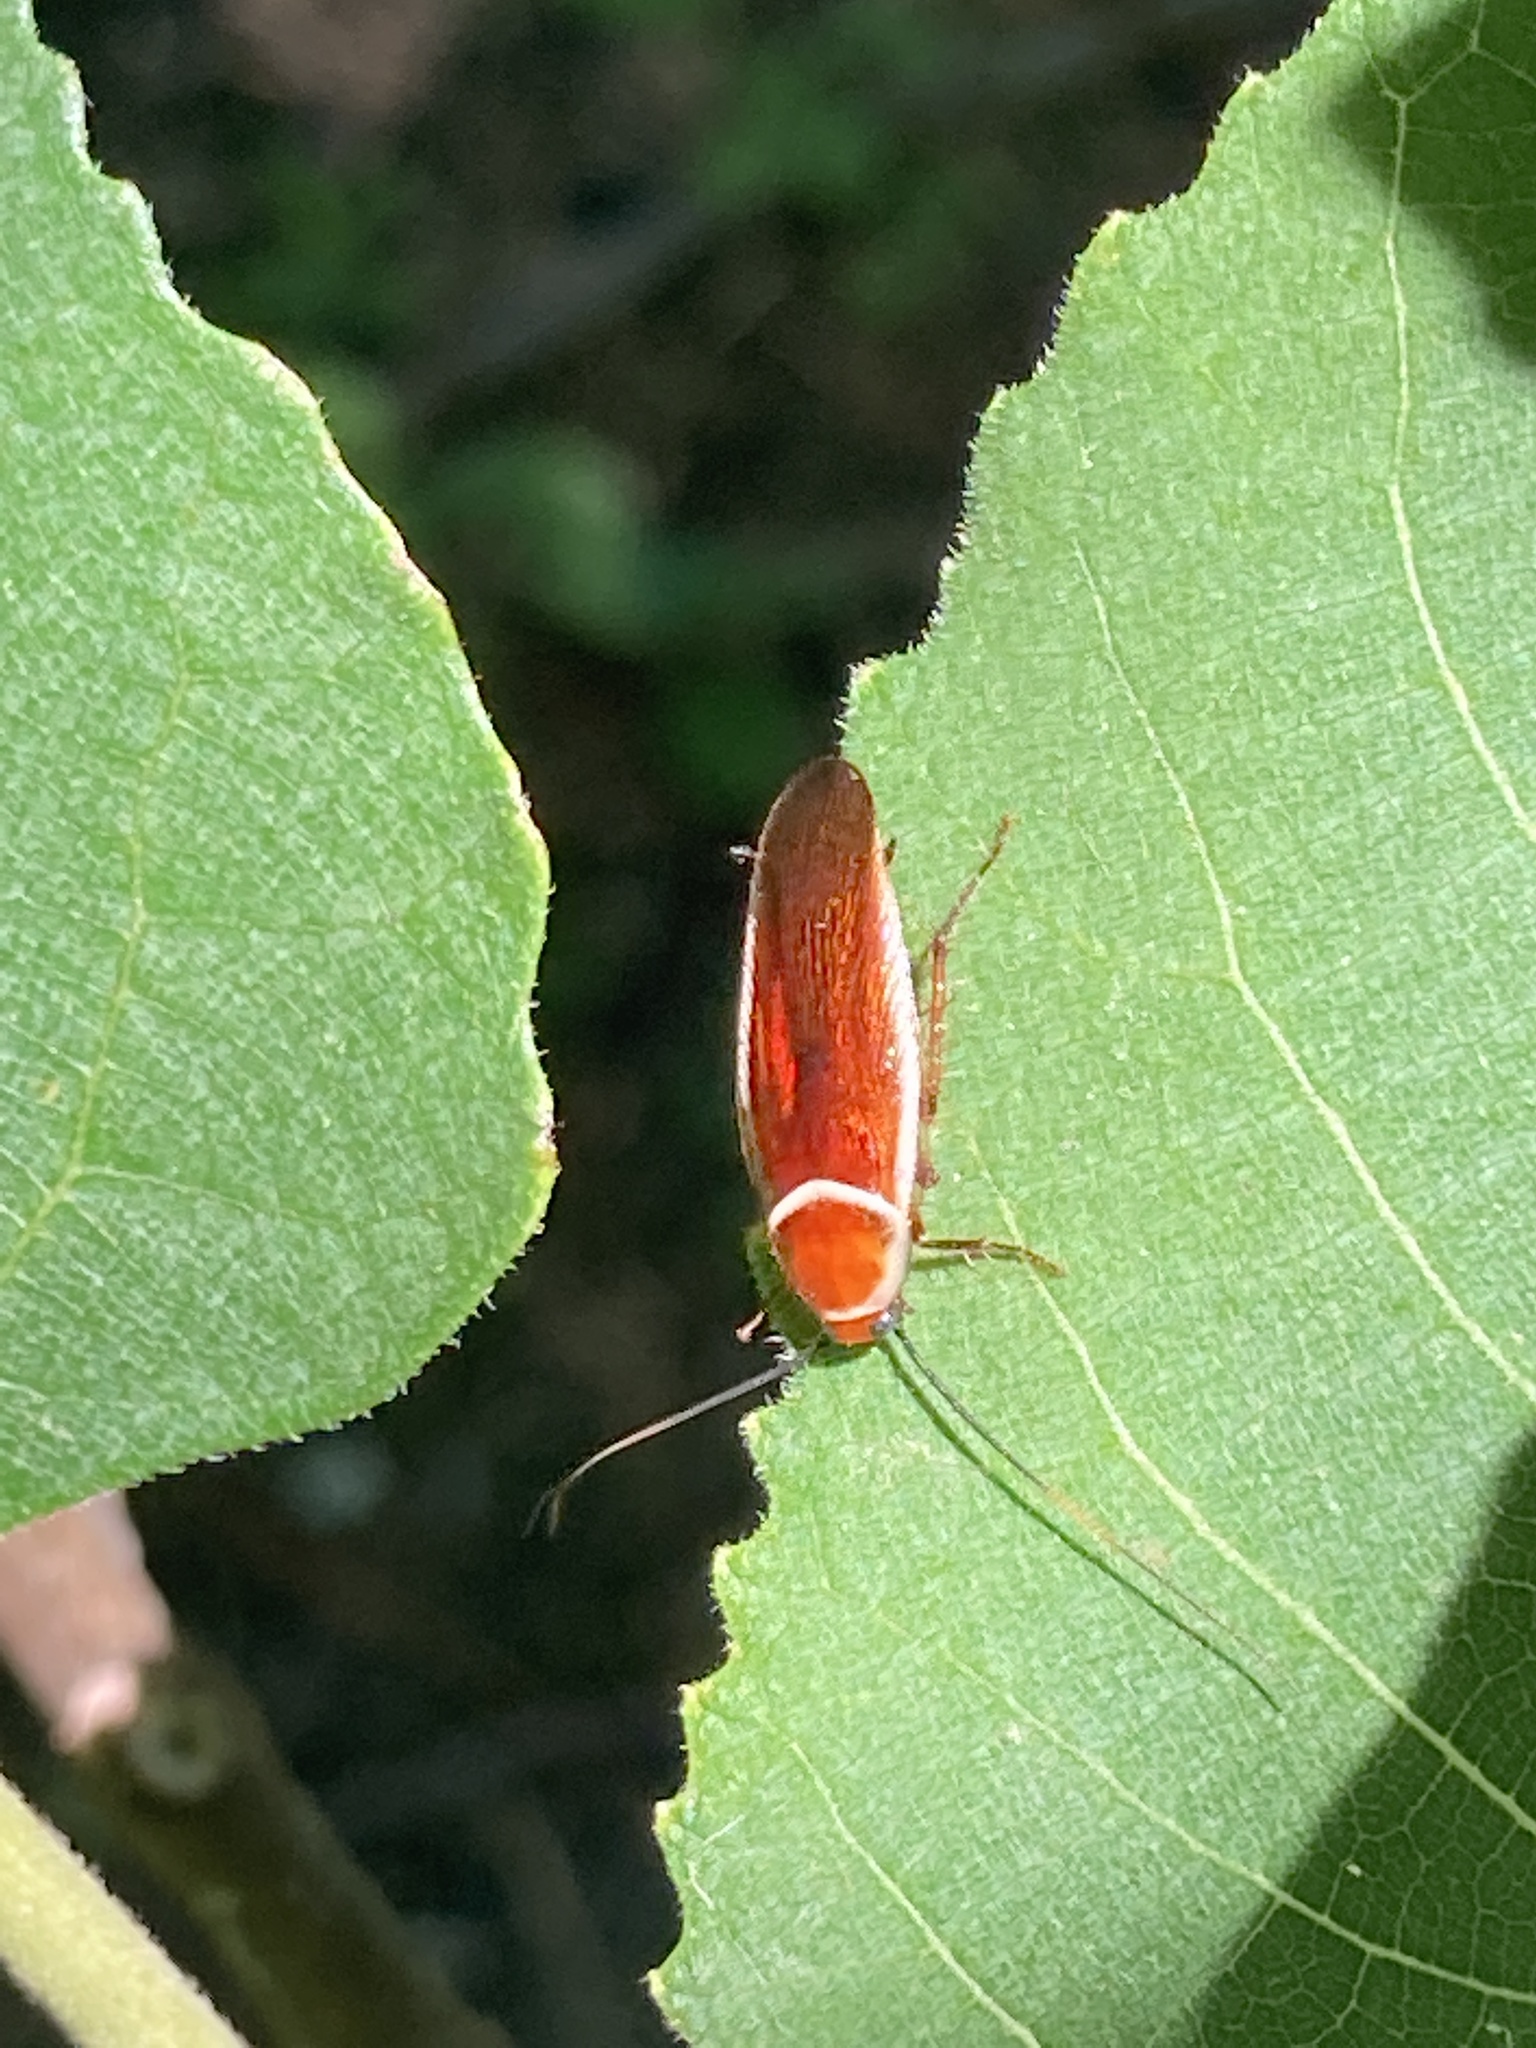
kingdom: Animalia
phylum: Arthropoda
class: Insecta
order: Blattodea
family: Ectobiidae
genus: Pseudomops
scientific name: Pseudomops septentrionalis
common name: Pale-bordered field cockroach
